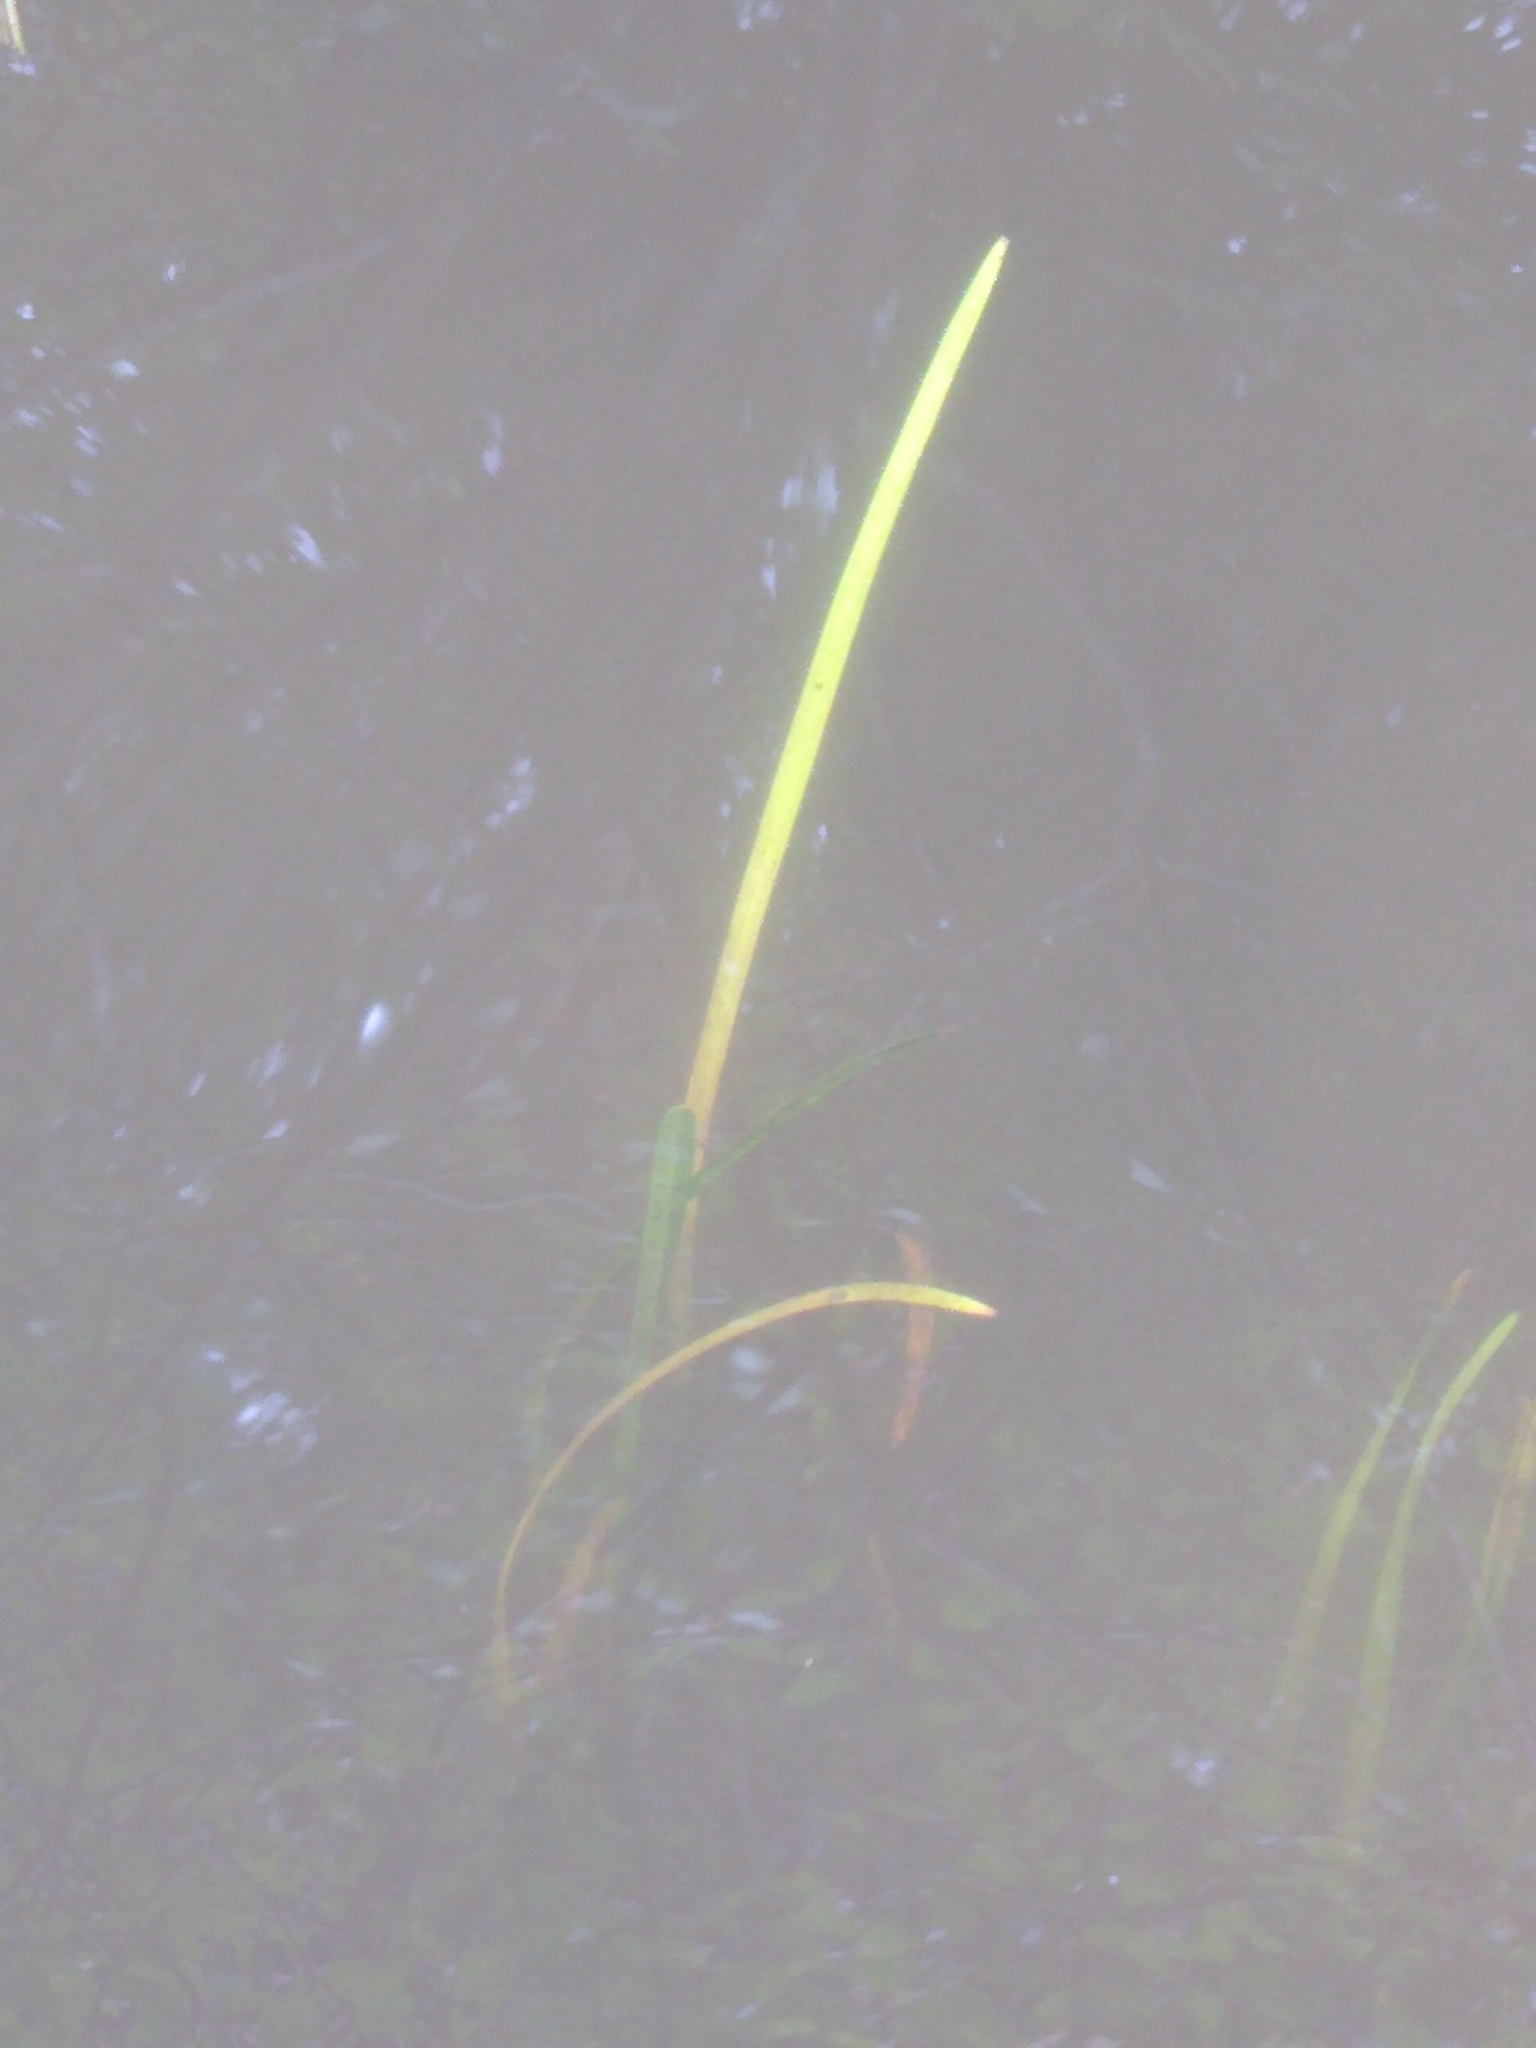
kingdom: Plantae
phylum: Tracheophyta
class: Liliopsida
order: Alismatales
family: Hydrocharitaceae
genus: Vallisneria
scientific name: Vallisneria americana
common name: American eelgrass
